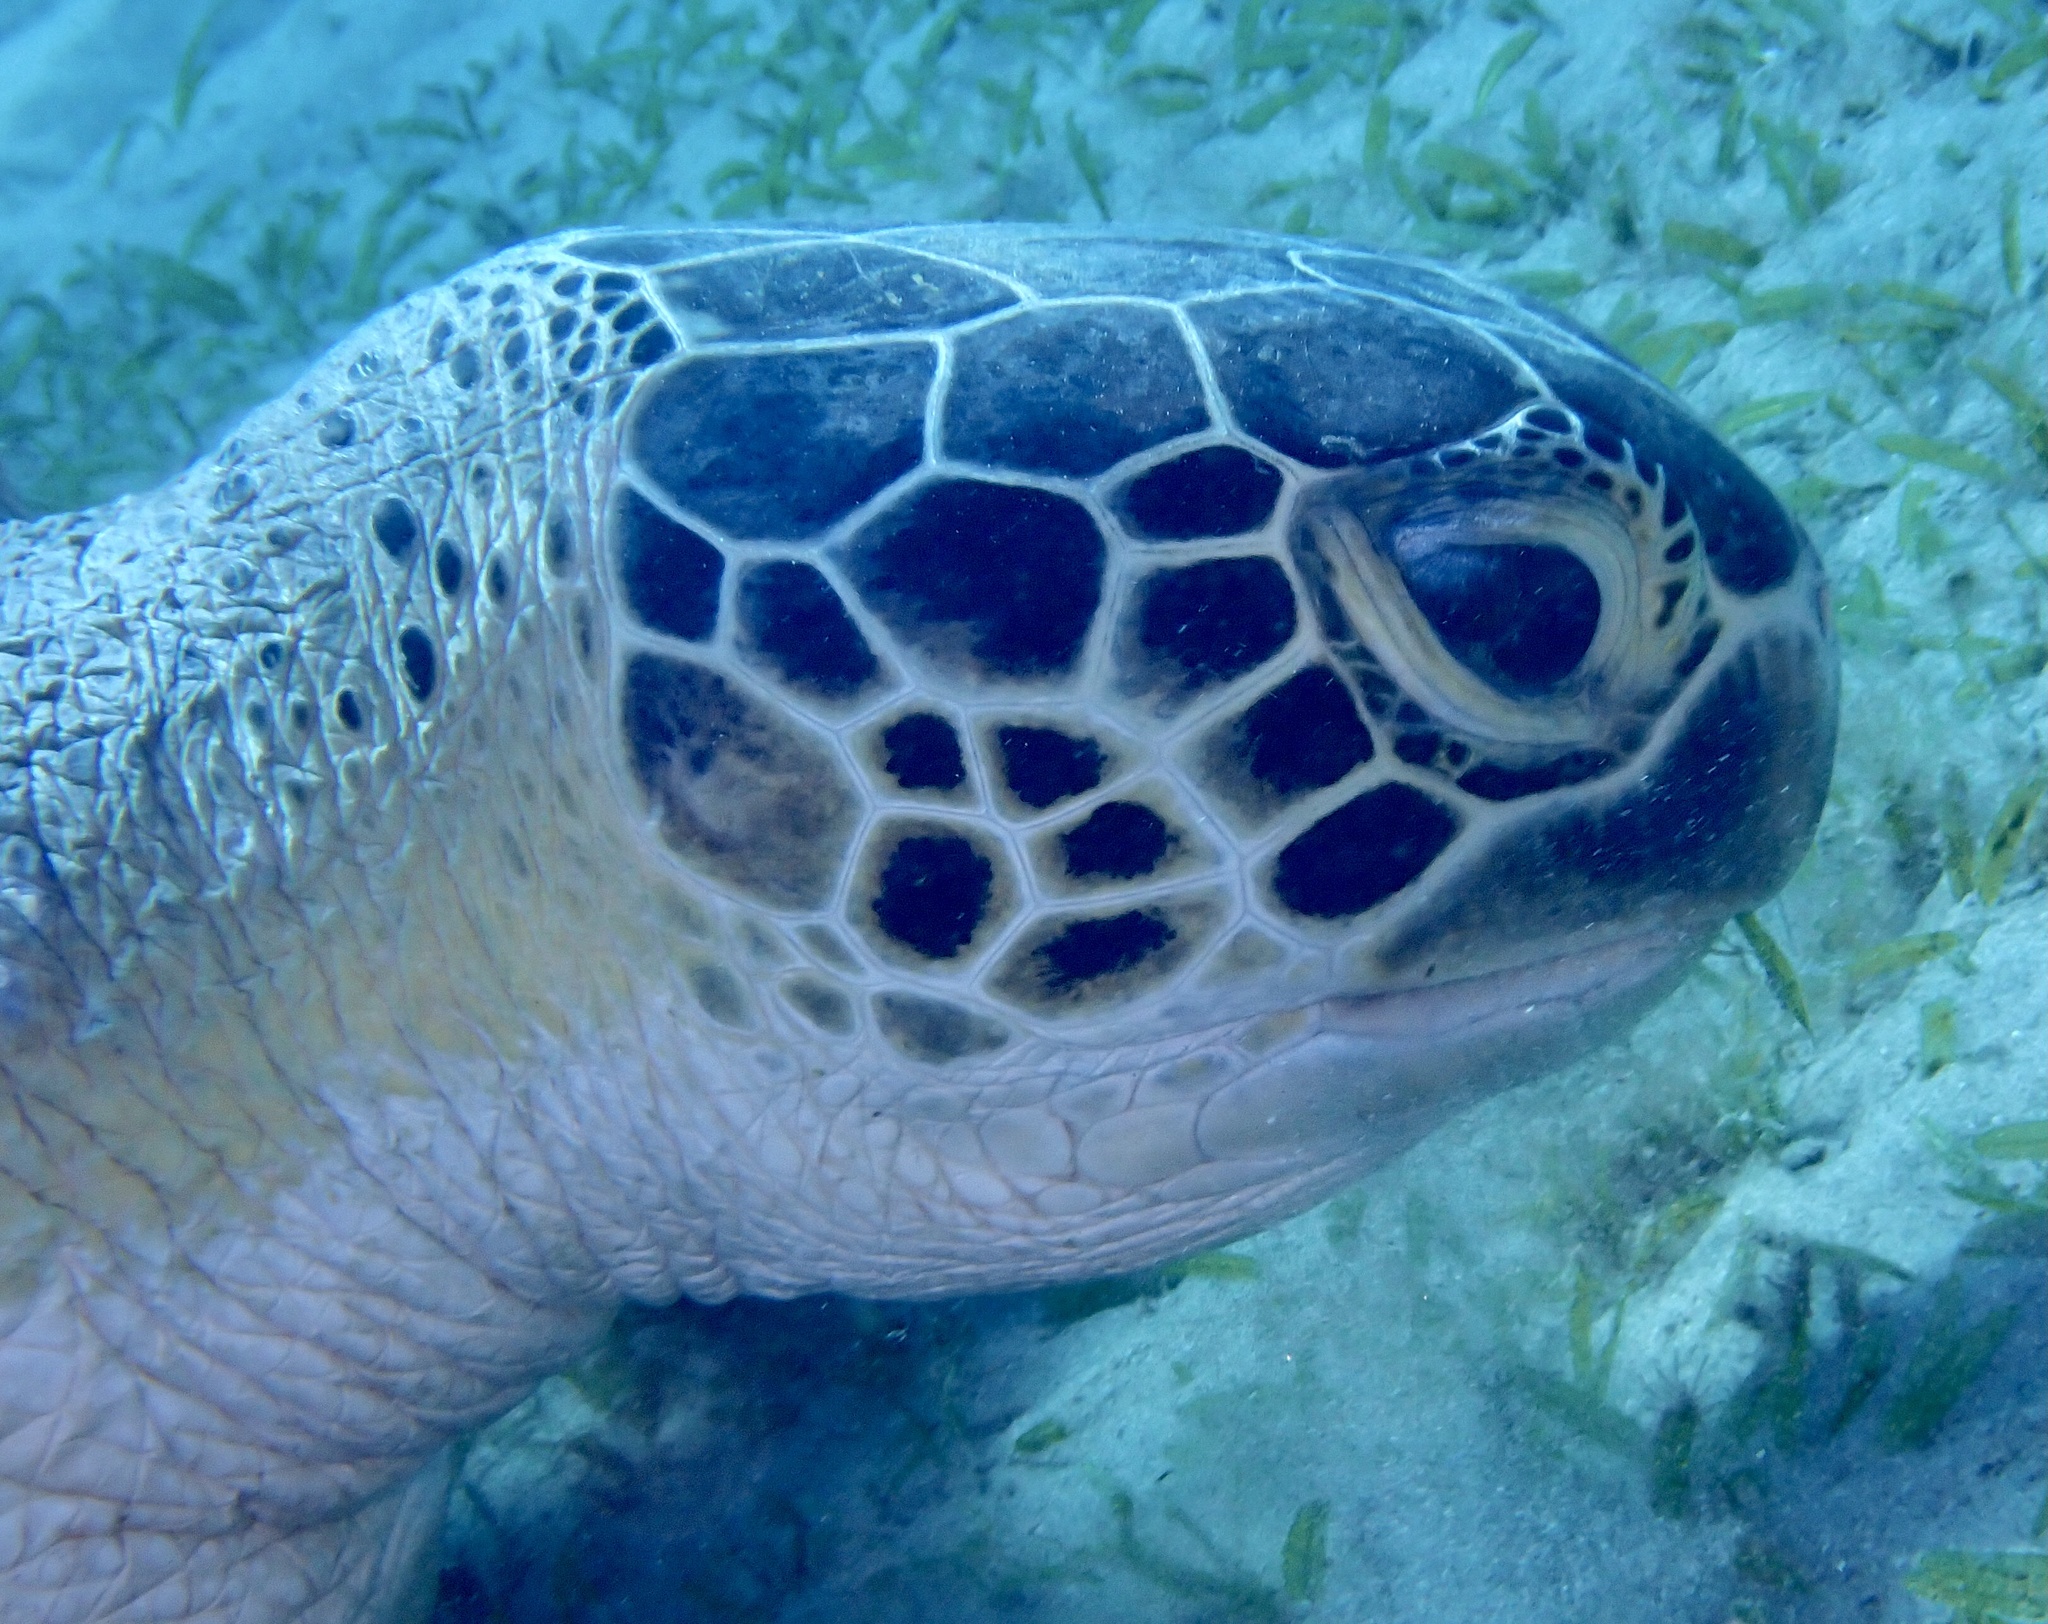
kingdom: Animalia
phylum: Chordata
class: Testudines
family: Cheloniidae
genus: Chelonia
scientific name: Chelonia mydas
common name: Green turtle
